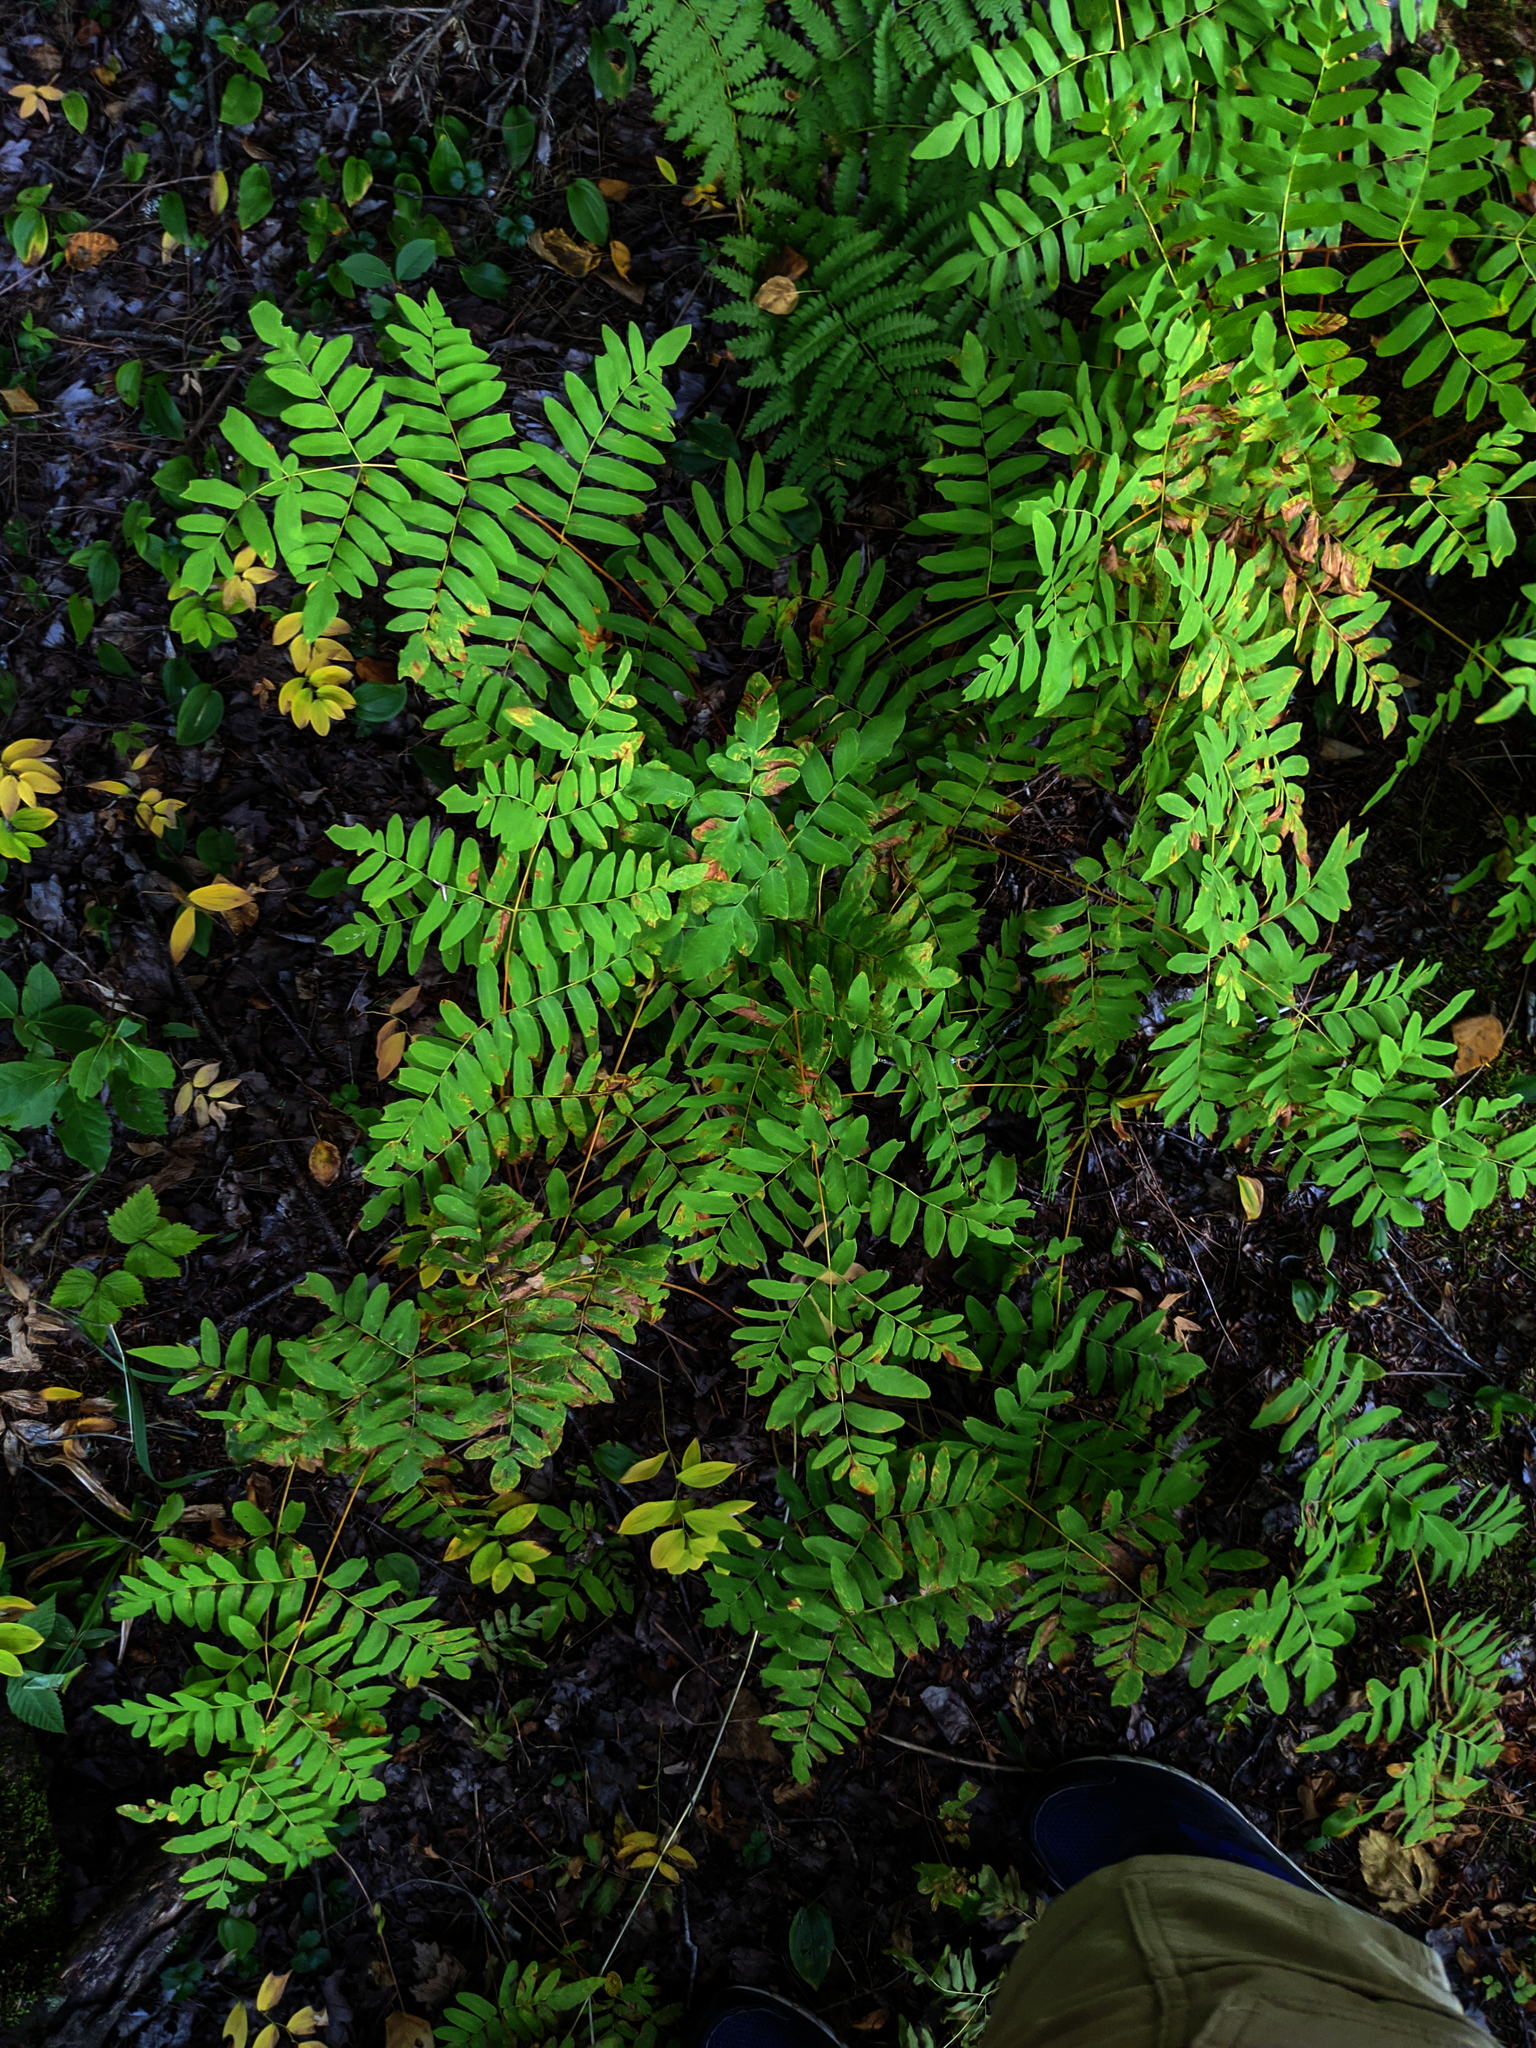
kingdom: Plantae
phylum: Tracheophyta
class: Polypodiopsida
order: Osmundales
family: Osmundaceae
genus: Osmunda
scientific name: Osmunda spectabilis
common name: American royal fern
